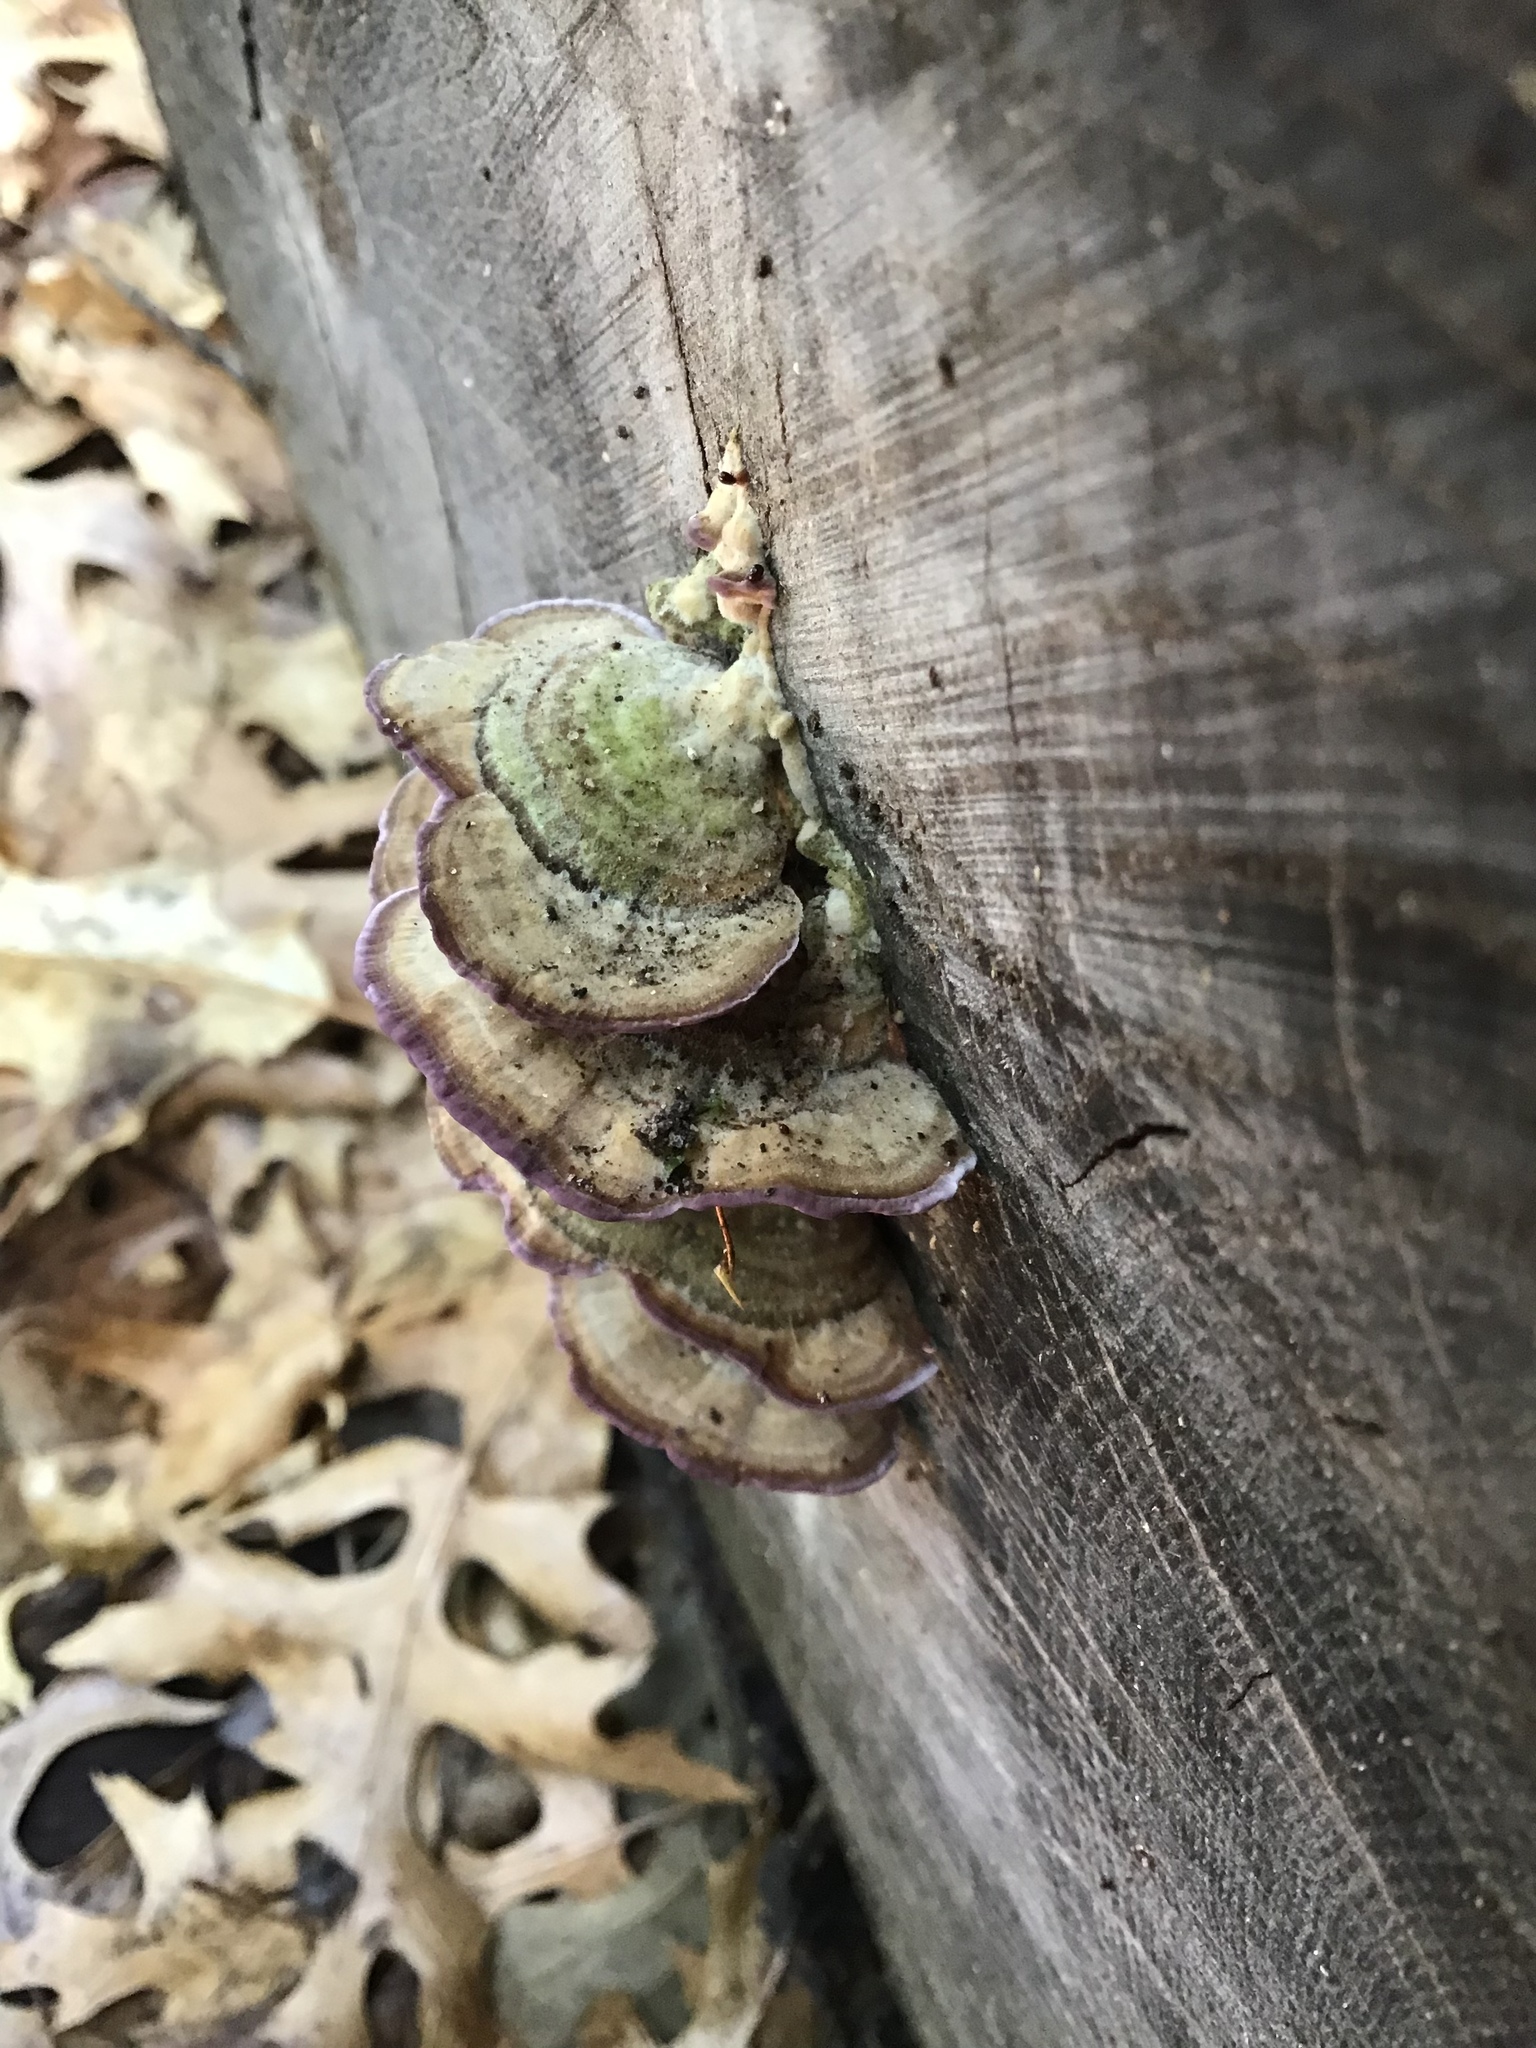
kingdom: Fungi
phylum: Basidiomycota
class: Agaricomycetes
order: Hymenochaetales
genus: Trichaptum
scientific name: Trichaptum biforme
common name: Violet-toothed polypore
